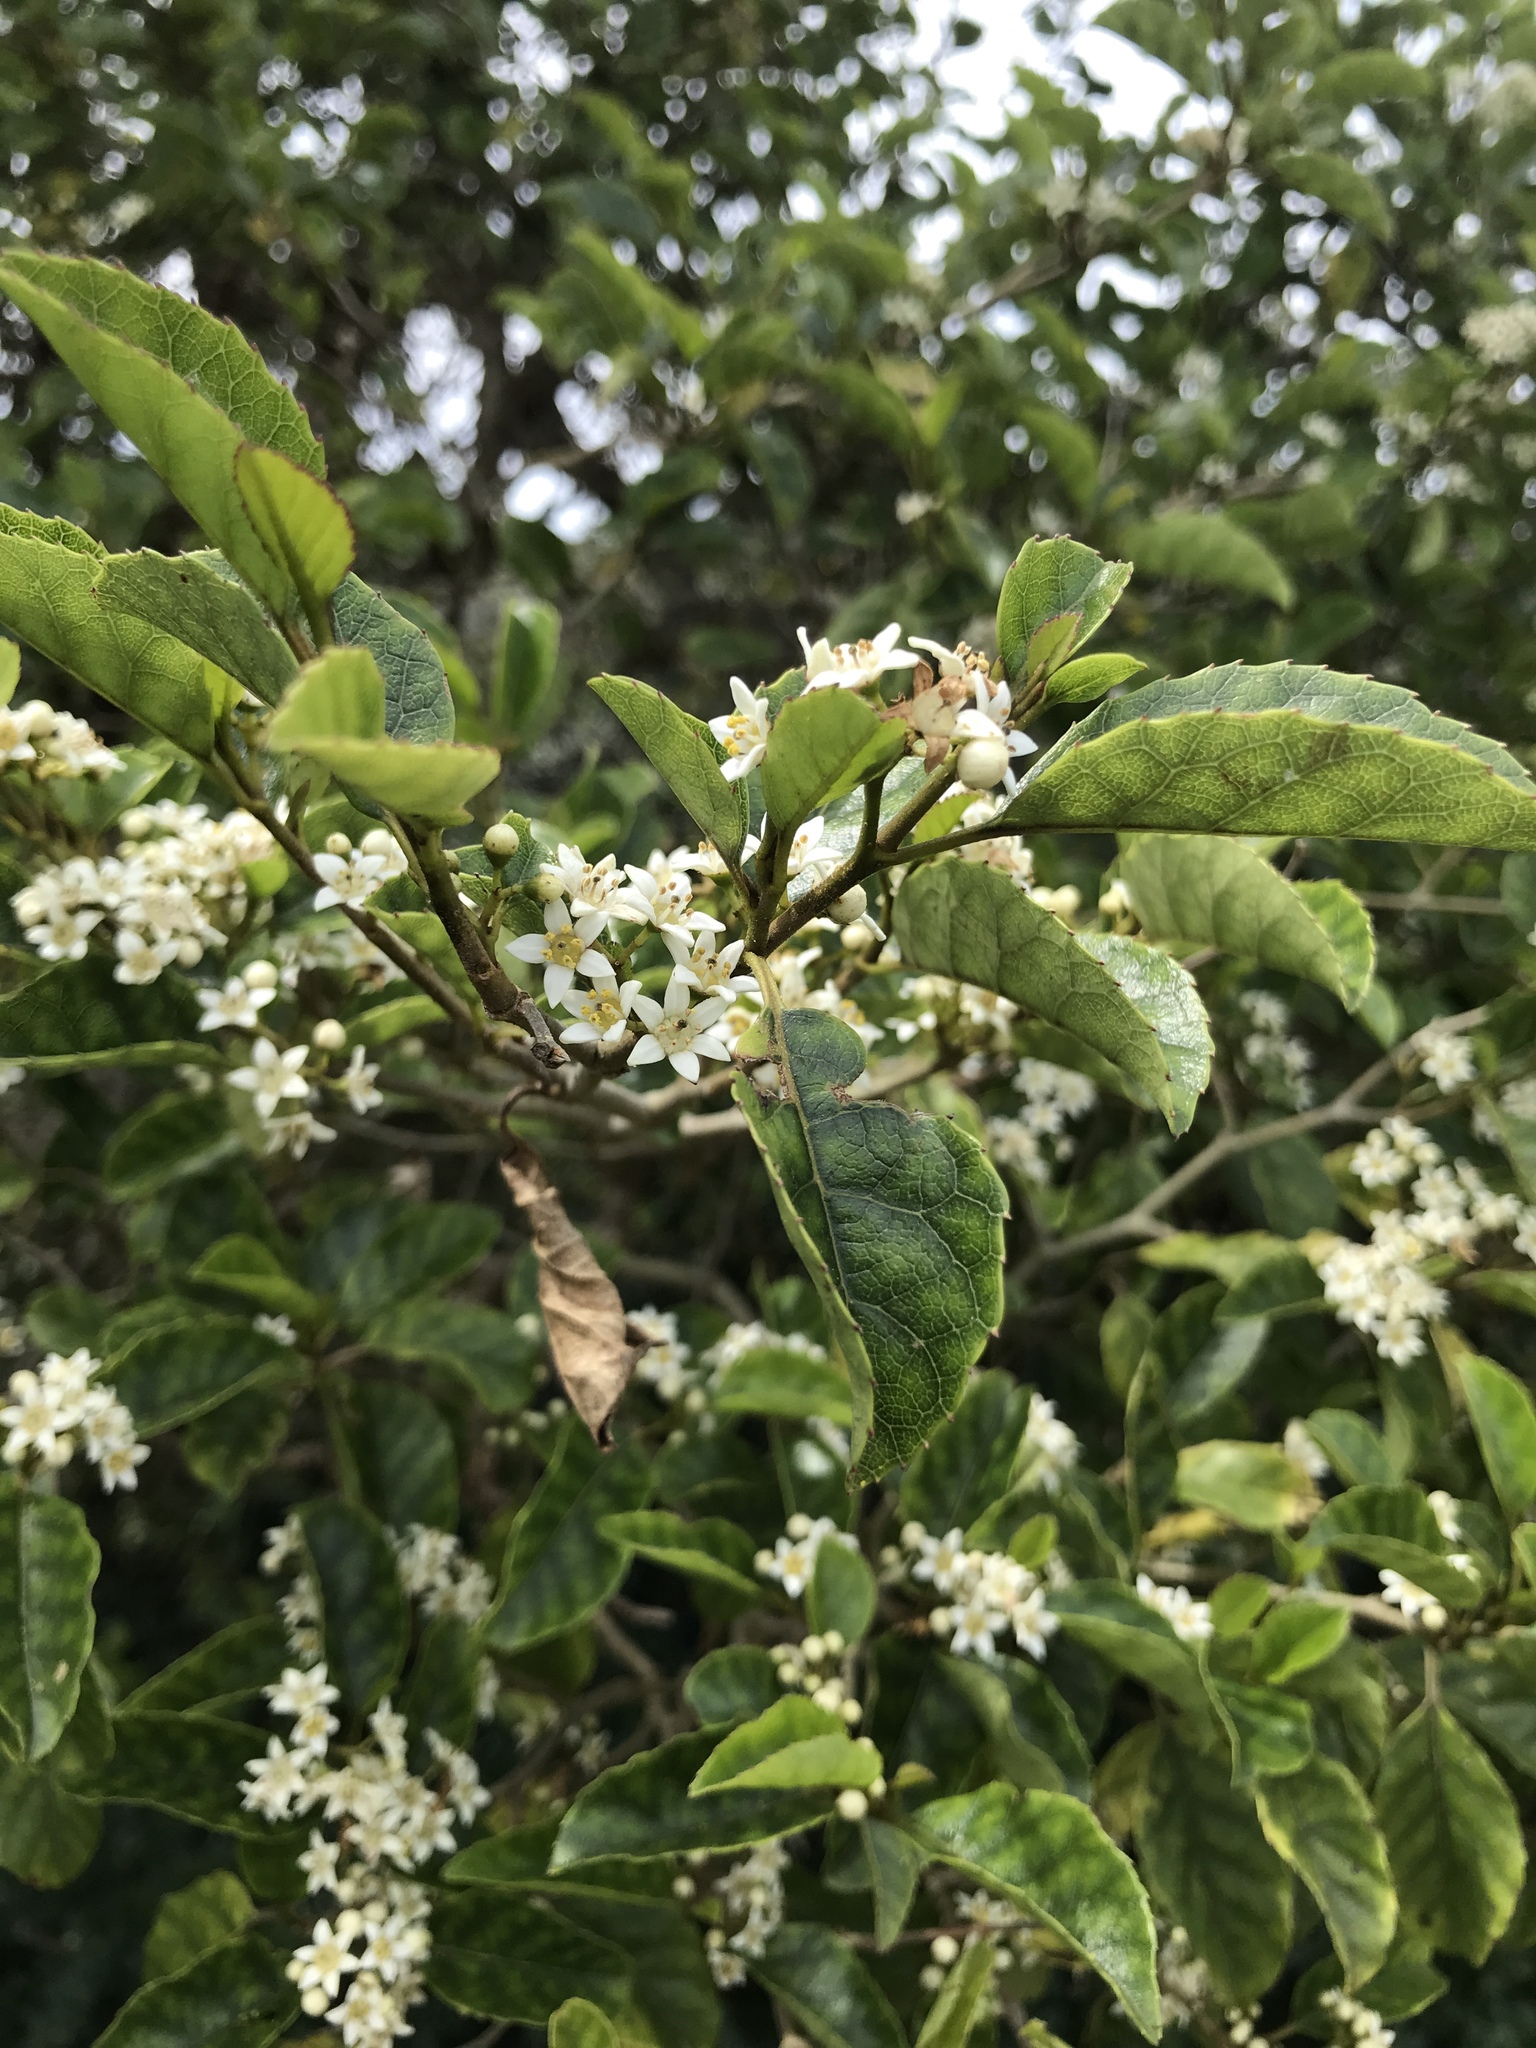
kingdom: Plantae
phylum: Tracheophyta
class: Magnoliopsida
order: Asterales
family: Rousseaceae
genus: Carpodetus
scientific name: Carpodetus serratus
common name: White mapau
